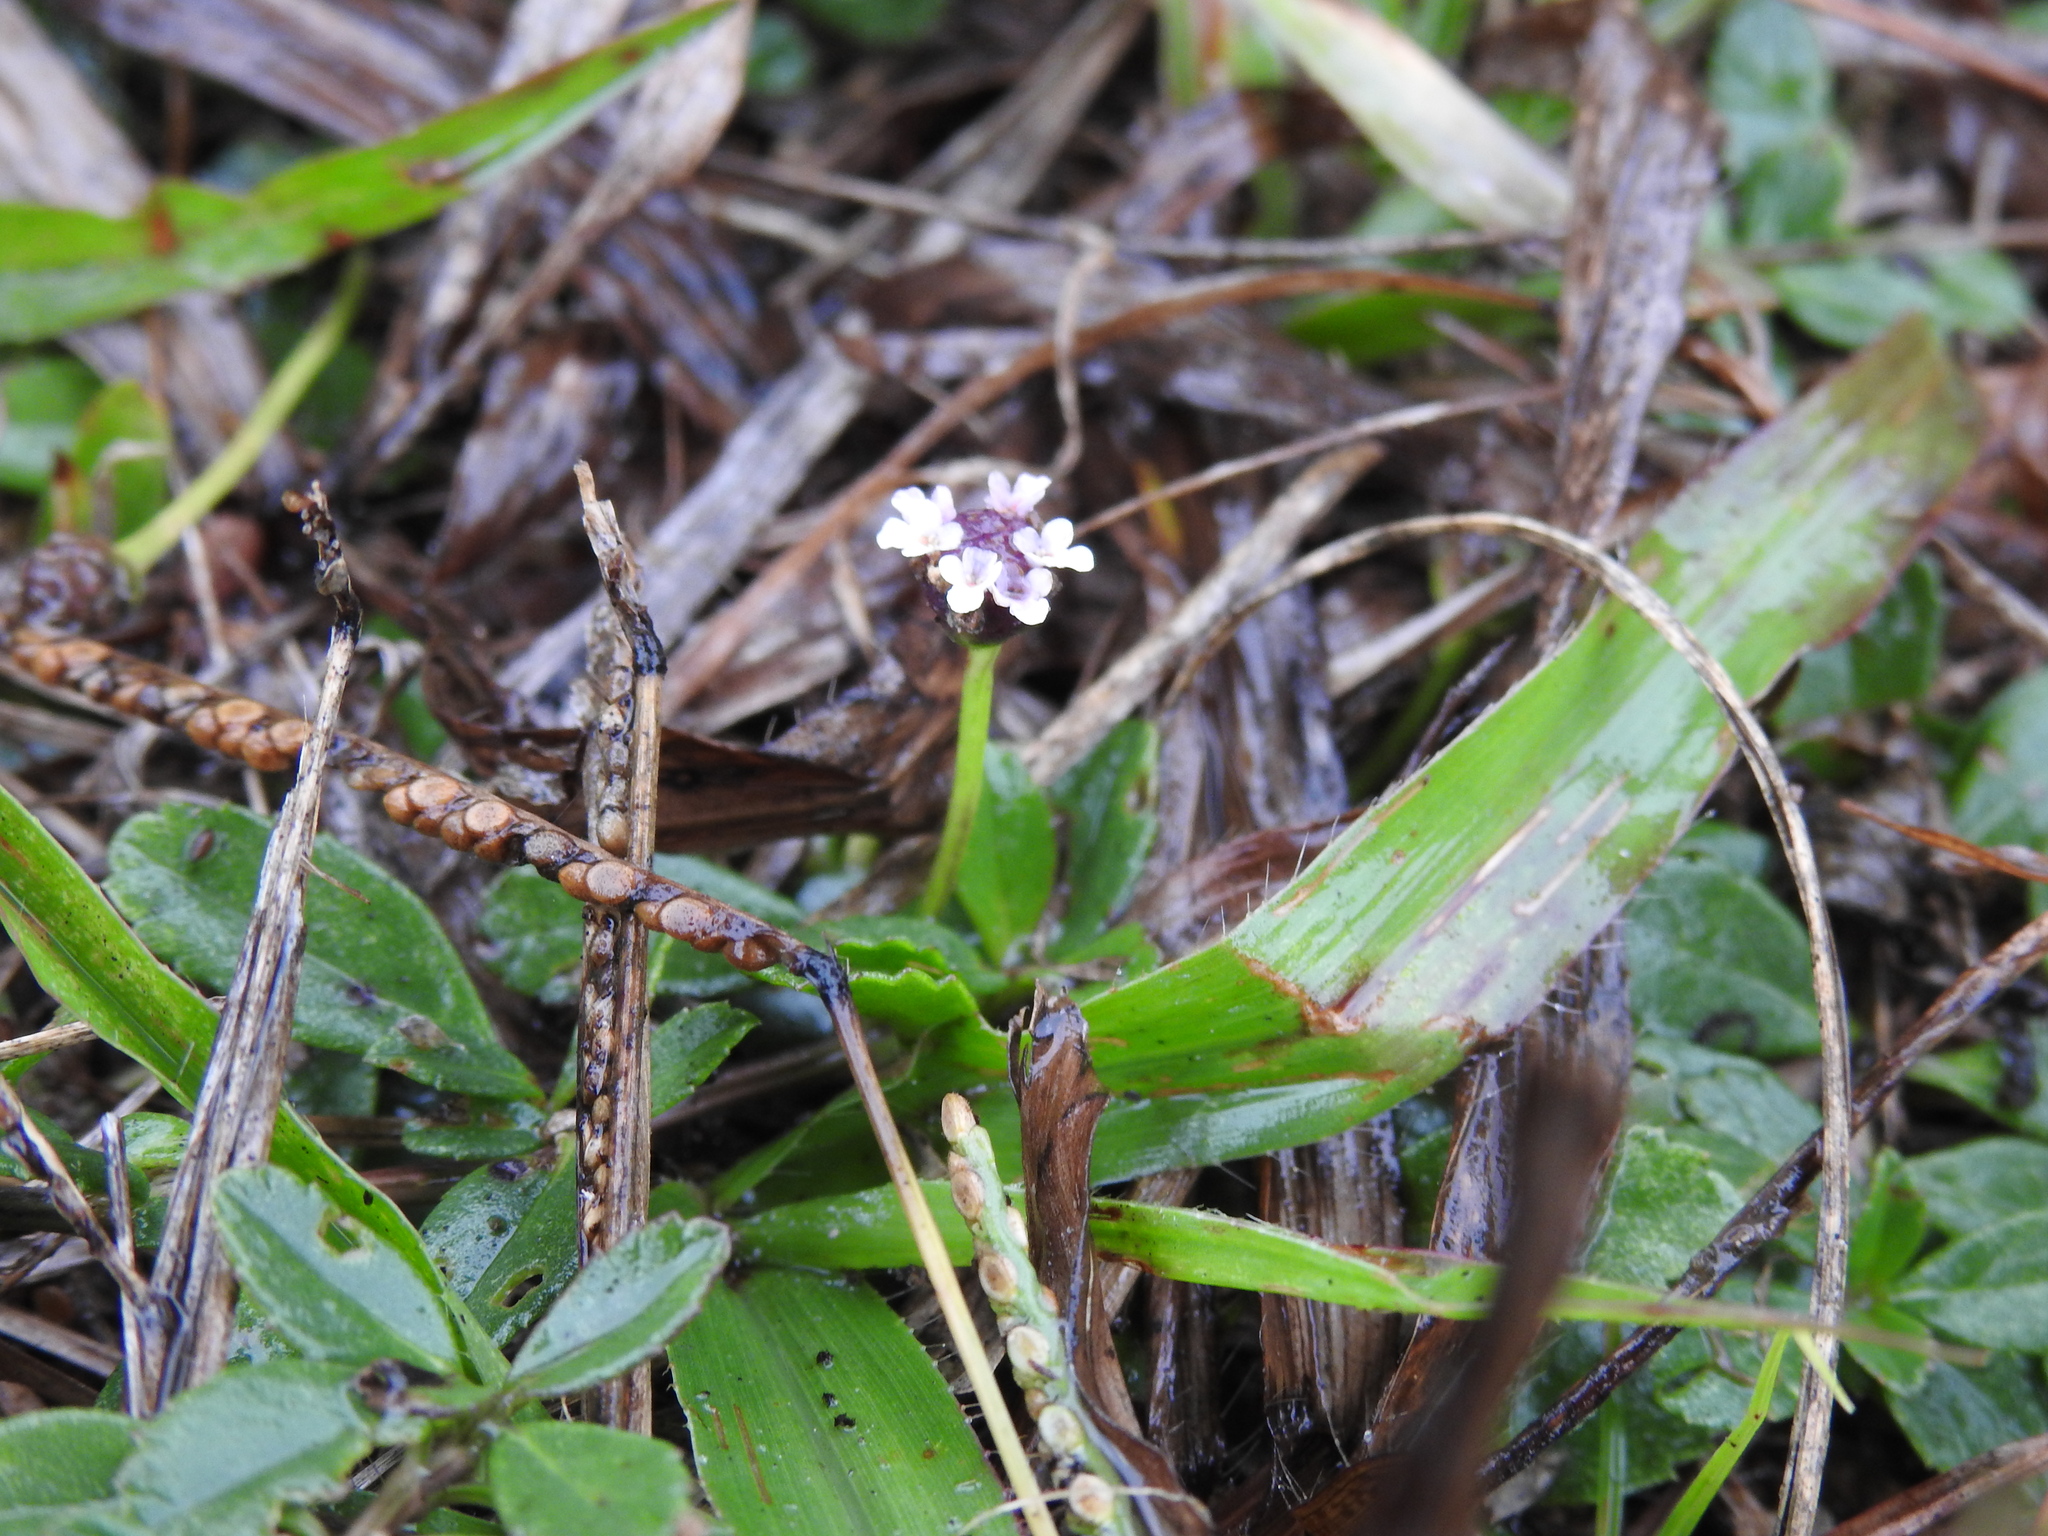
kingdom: Plantae
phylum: Tracheophyta
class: Magnoliopsida
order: Lamiales
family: Verbenaceae
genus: Phyla
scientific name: Phyla nodiflora
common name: Frogfruit
